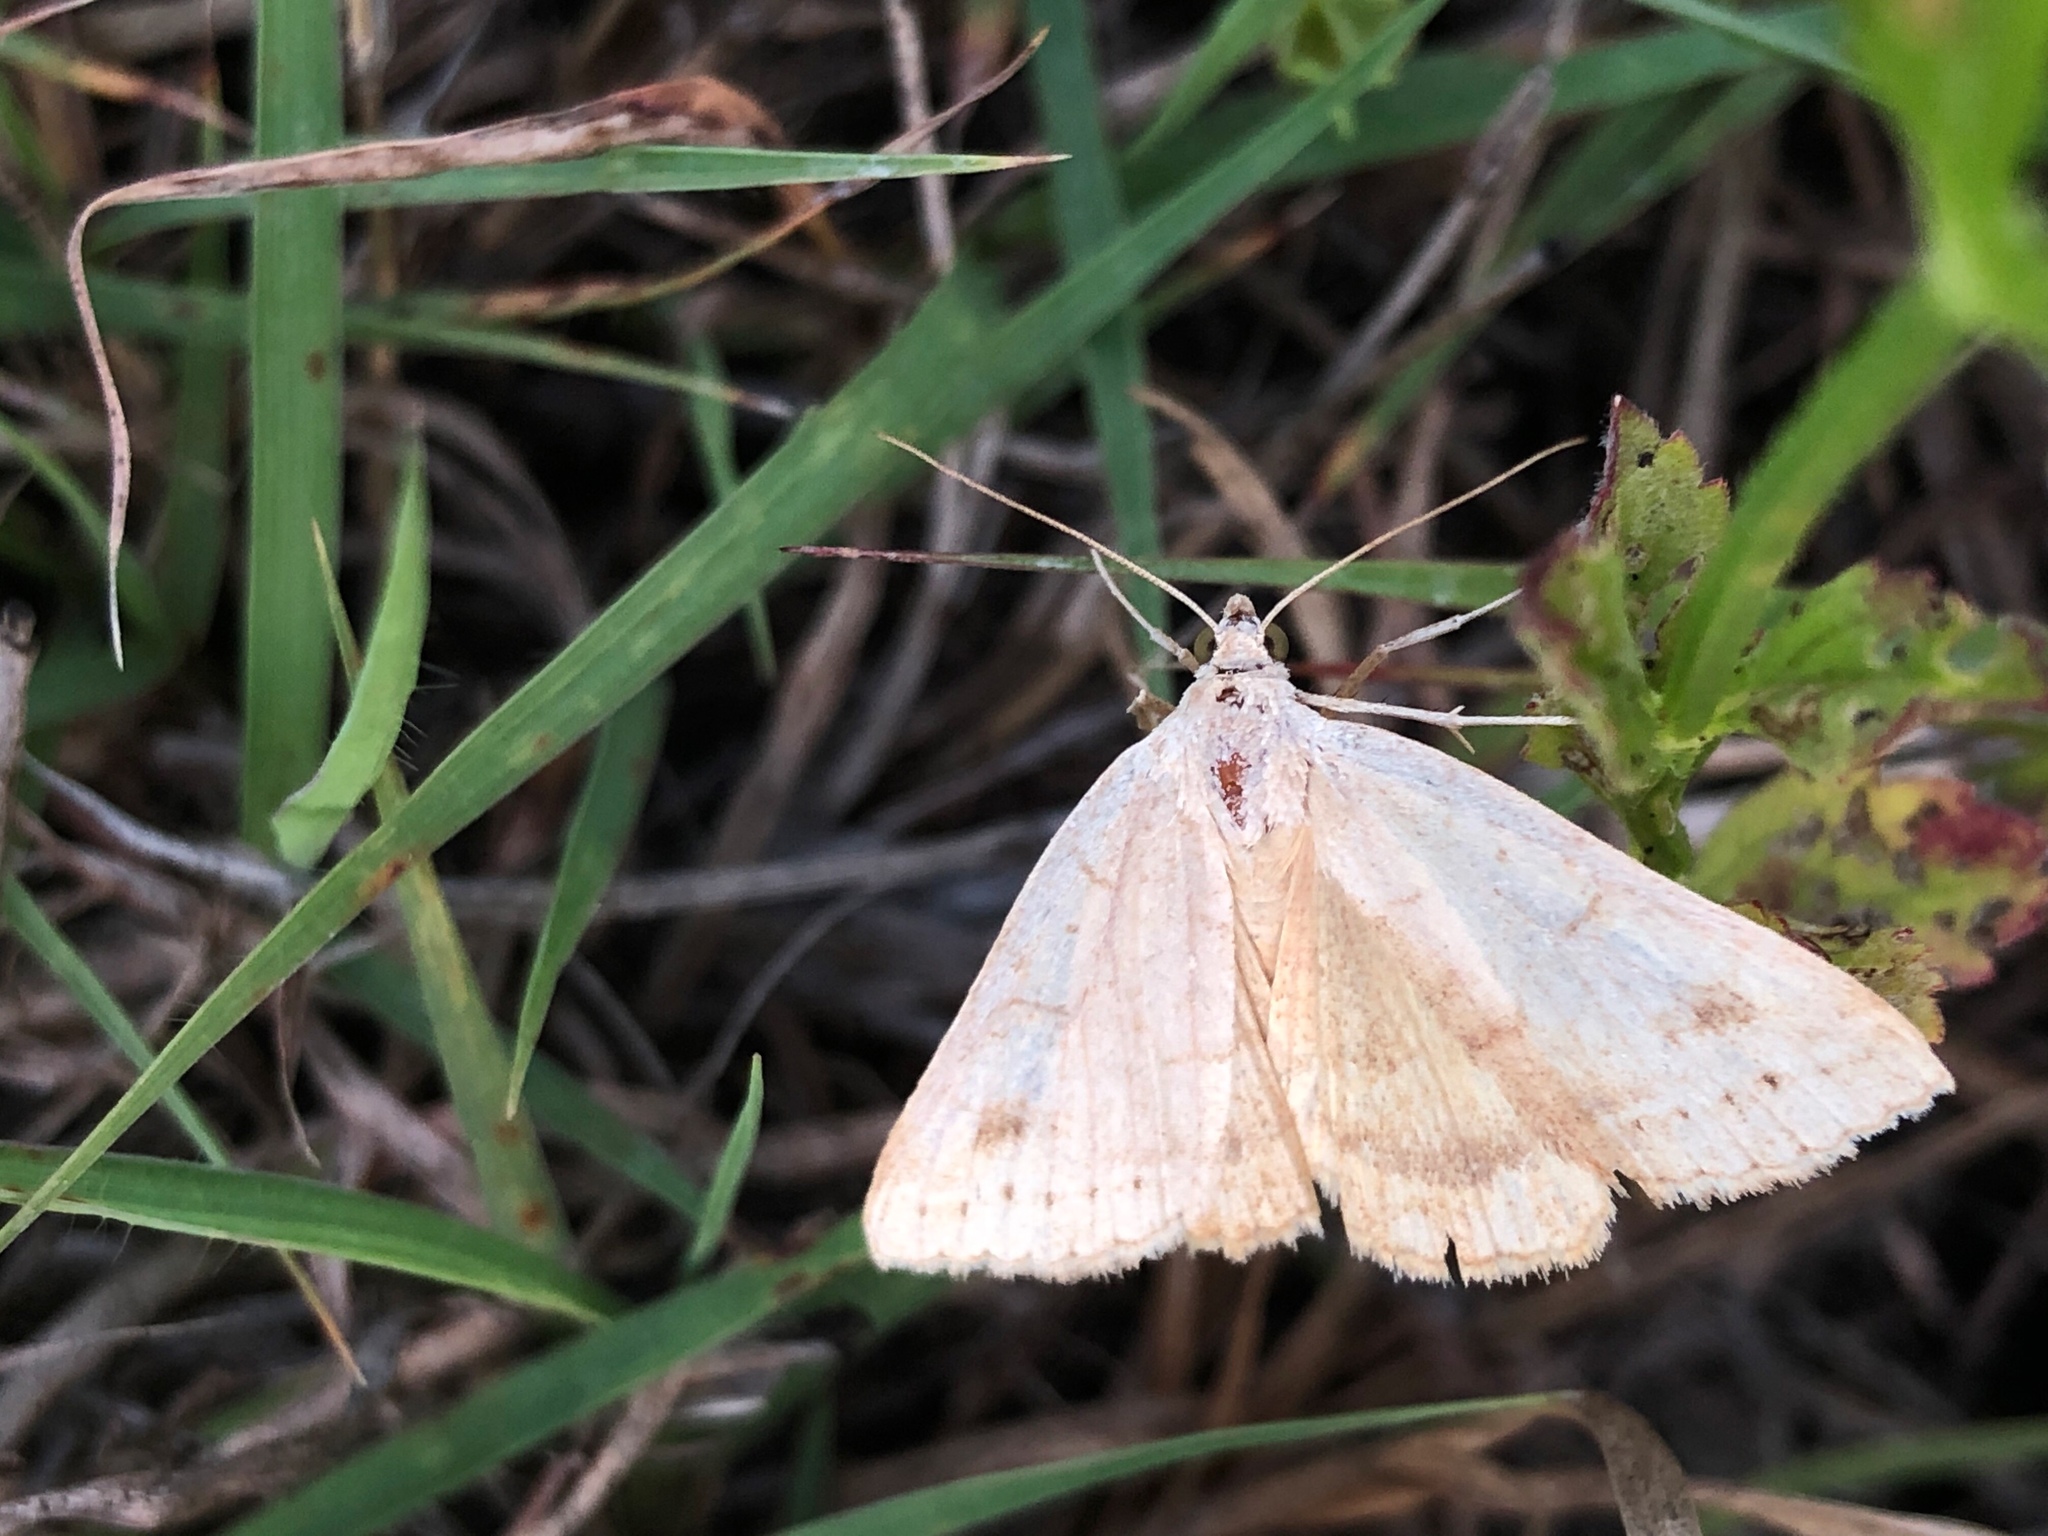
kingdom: Animalia
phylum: Arthropoda
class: Insecta
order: Lepidoptera
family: Erebidae
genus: Caenurgia
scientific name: Caenurgia chloropha
